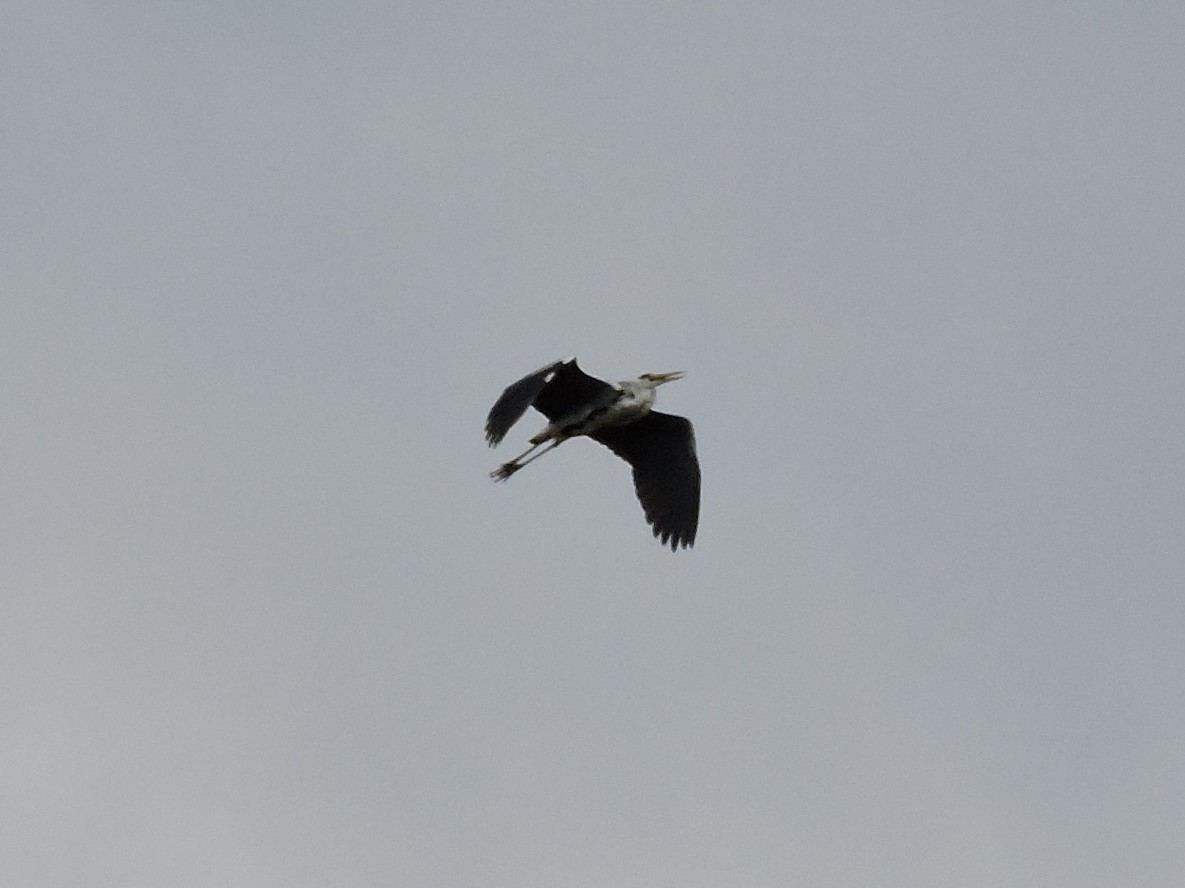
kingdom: Animalia
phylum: Chordata
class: Aves
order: Pelecaniformes
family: Ardeidae
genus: Ardea
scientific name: Ardea cinerea
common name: Grey heron
